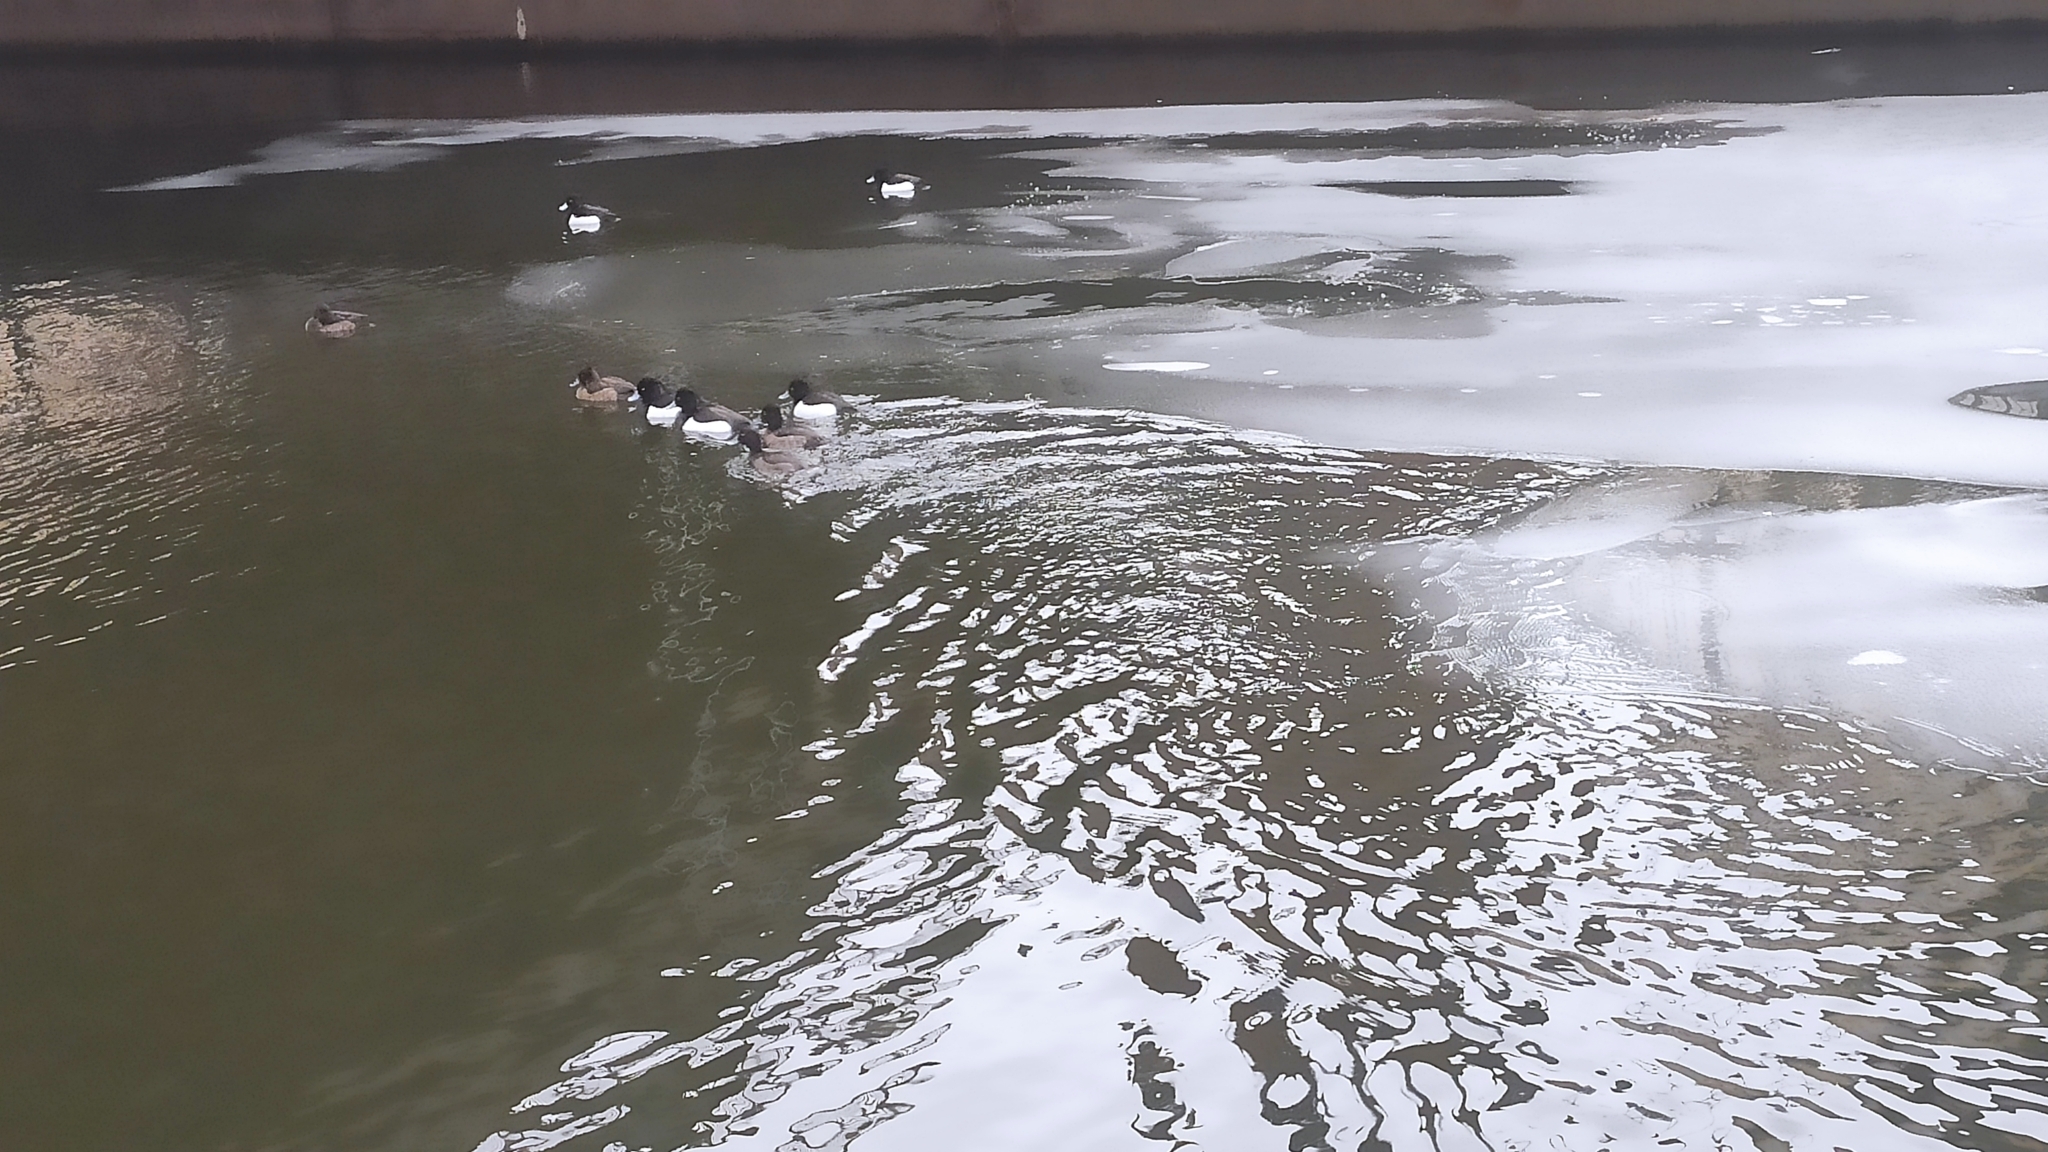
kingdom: Animalia
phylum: Chordata
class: Aves
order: Anseriformes
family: Anatidae
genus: Aythya
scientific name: Aythya fuligula
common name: Tufted duck
